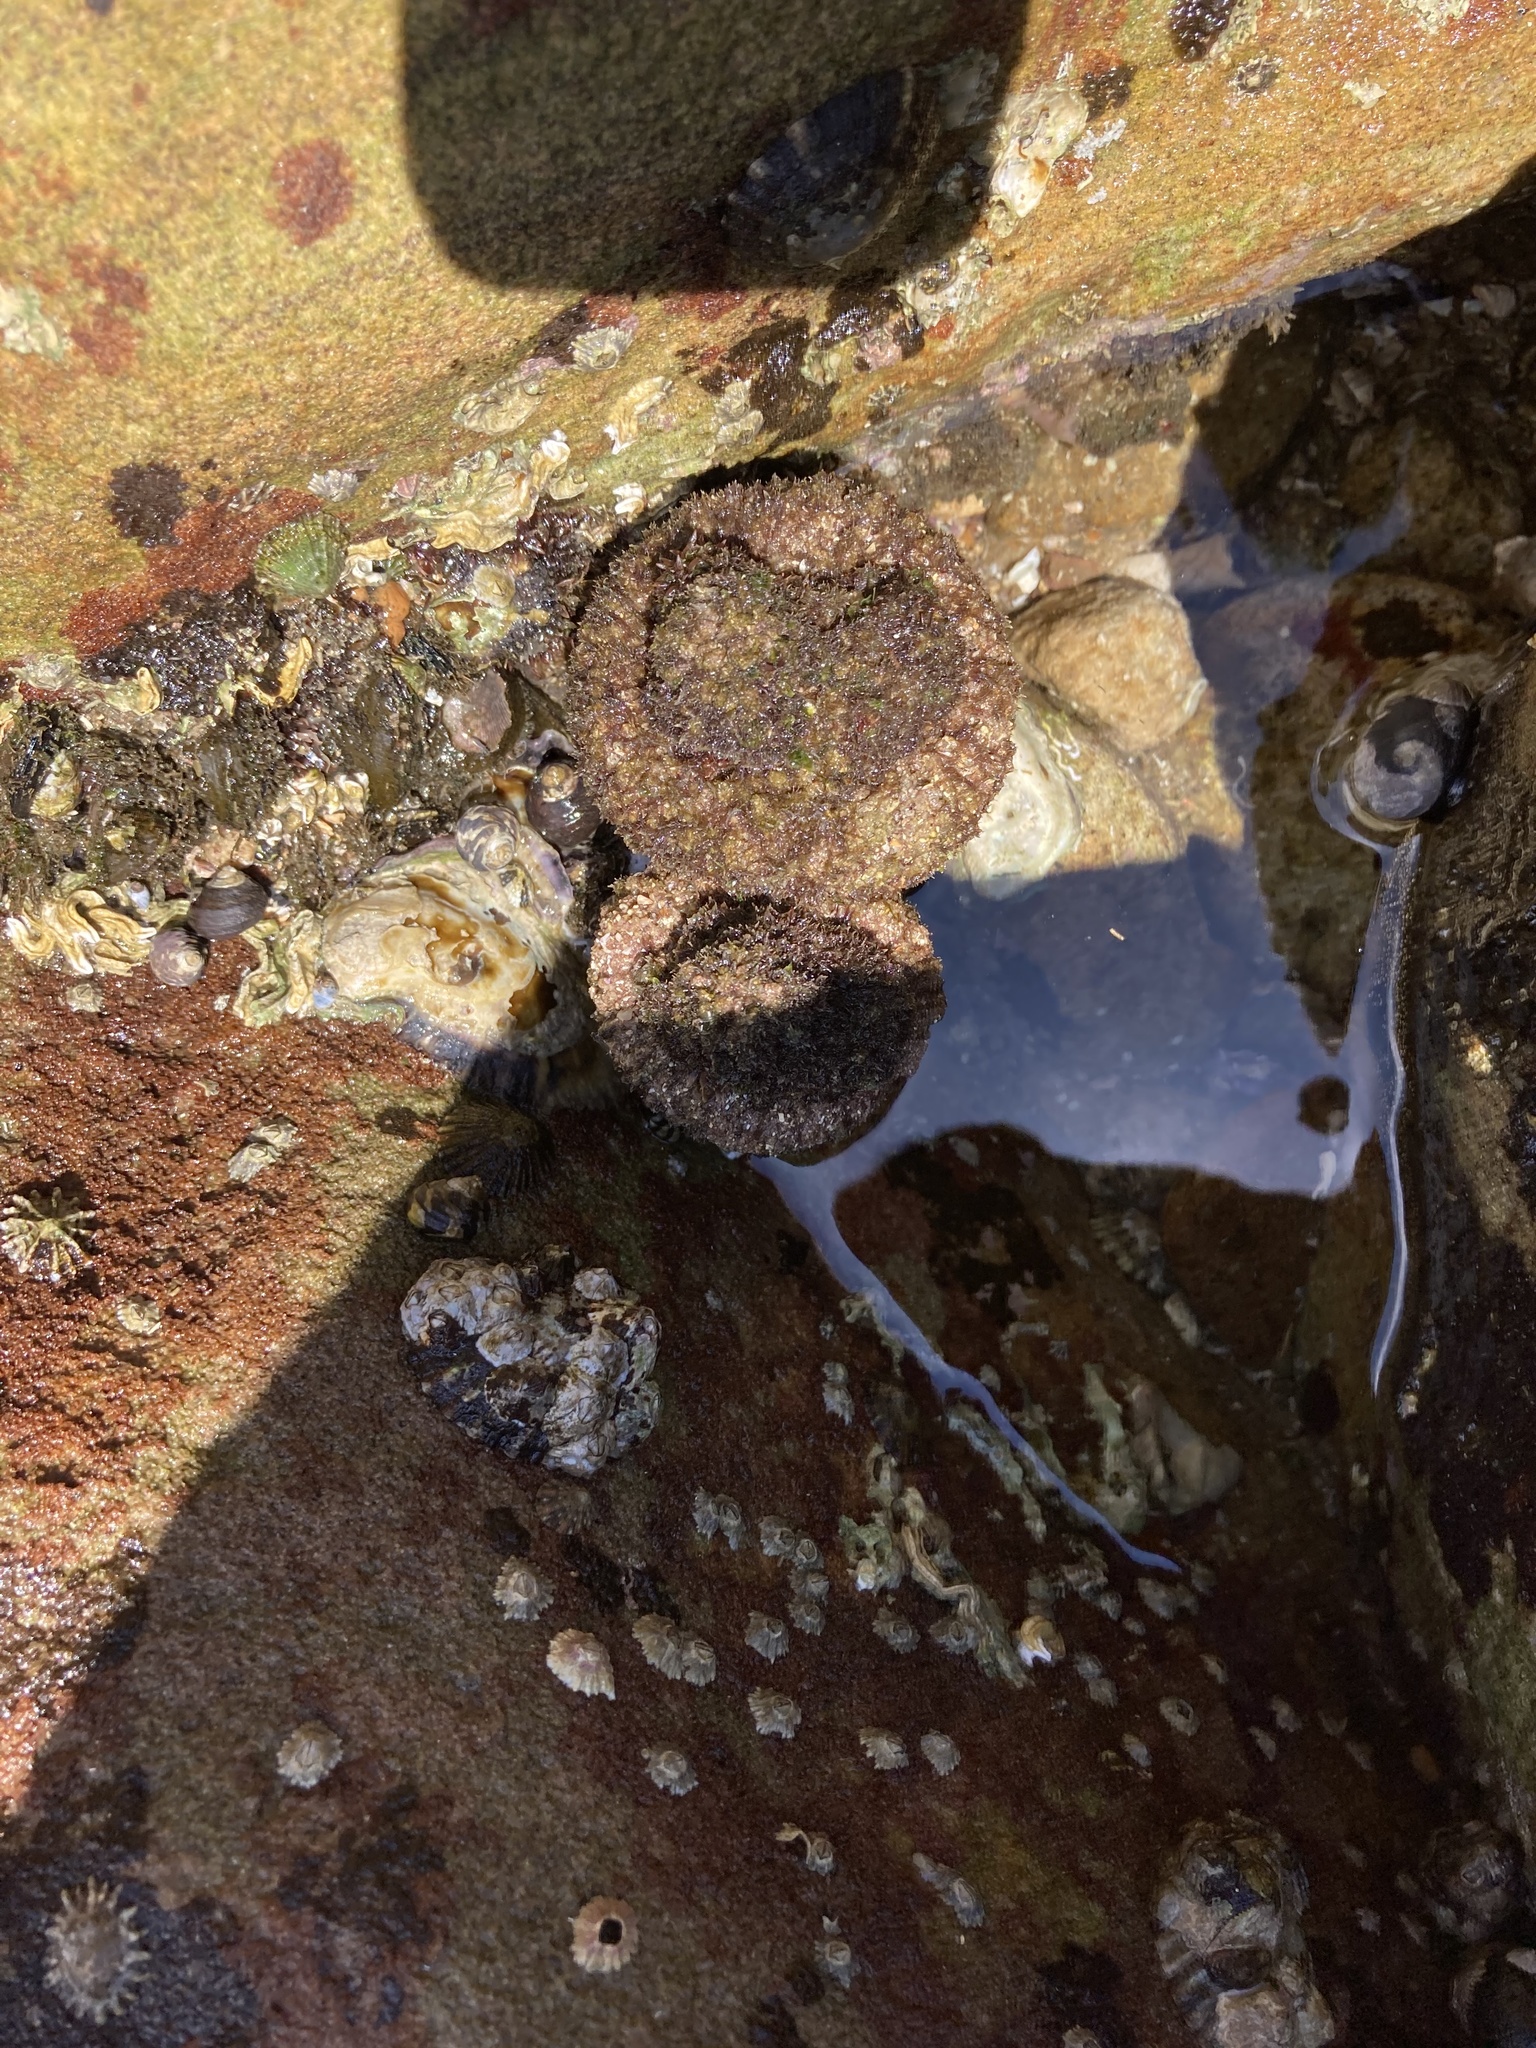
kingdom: Animalia
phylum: Chordata
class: Ascidiacea
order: Stolidobranchia
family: Pyuridae
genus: Pyura
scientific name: Pyura praeputialis
